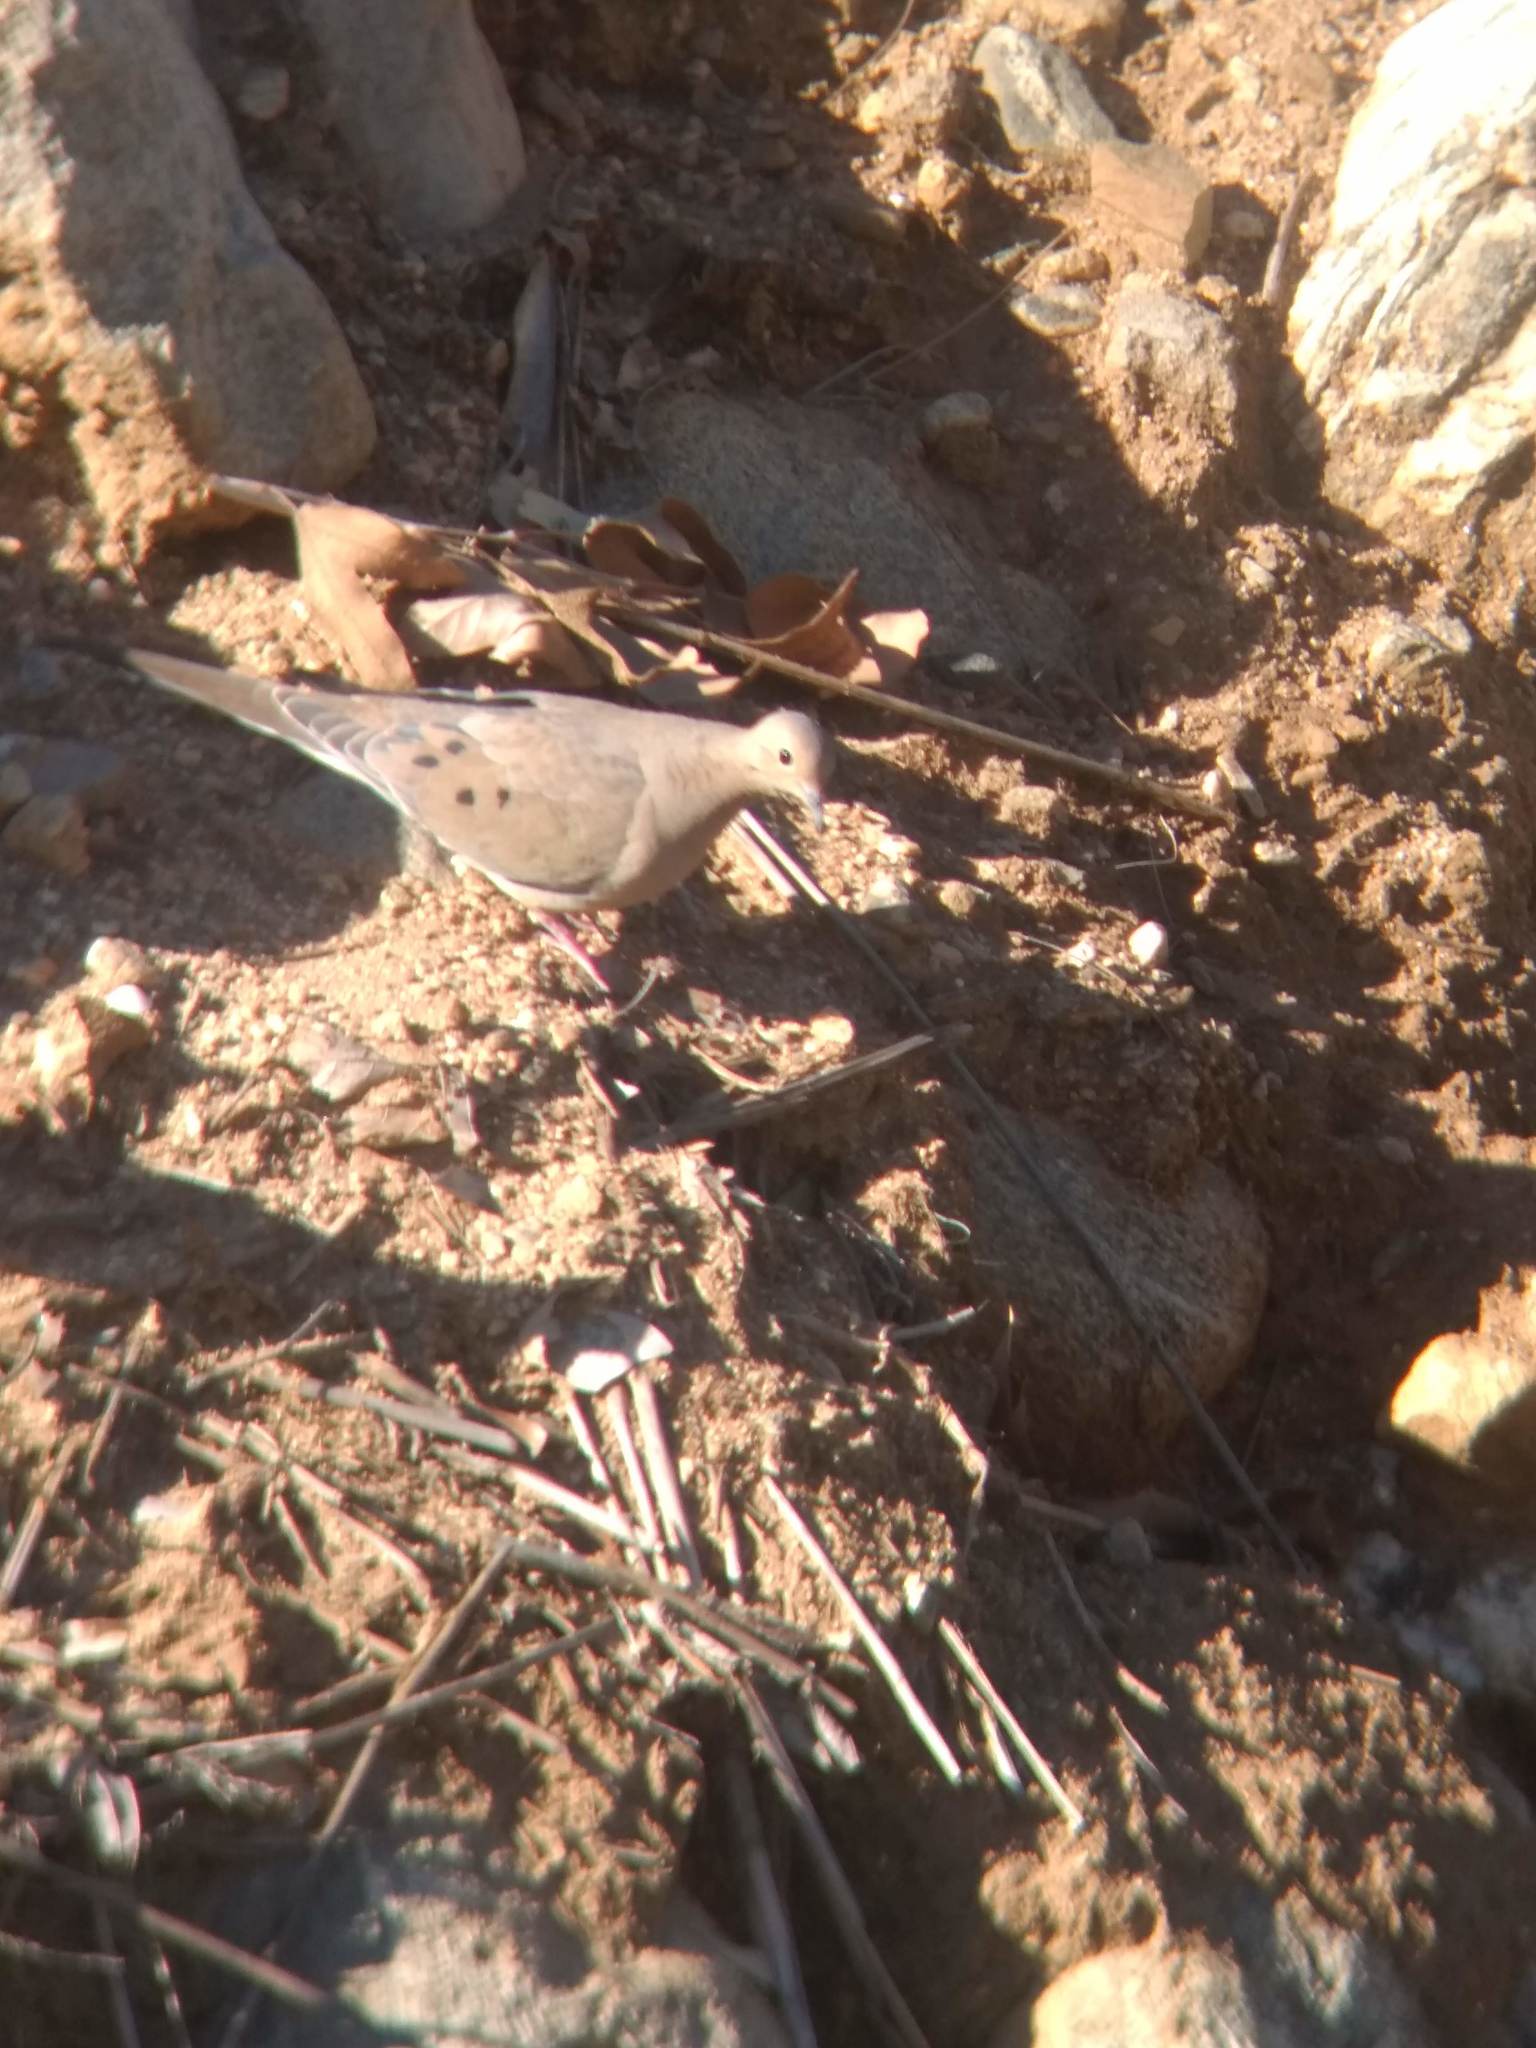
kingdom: Animalia
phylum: Chordata
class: Aves
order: Columbiformes
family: Columbidae
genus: Zenaida
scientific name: Zenaida macroura
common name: Mourning dove
